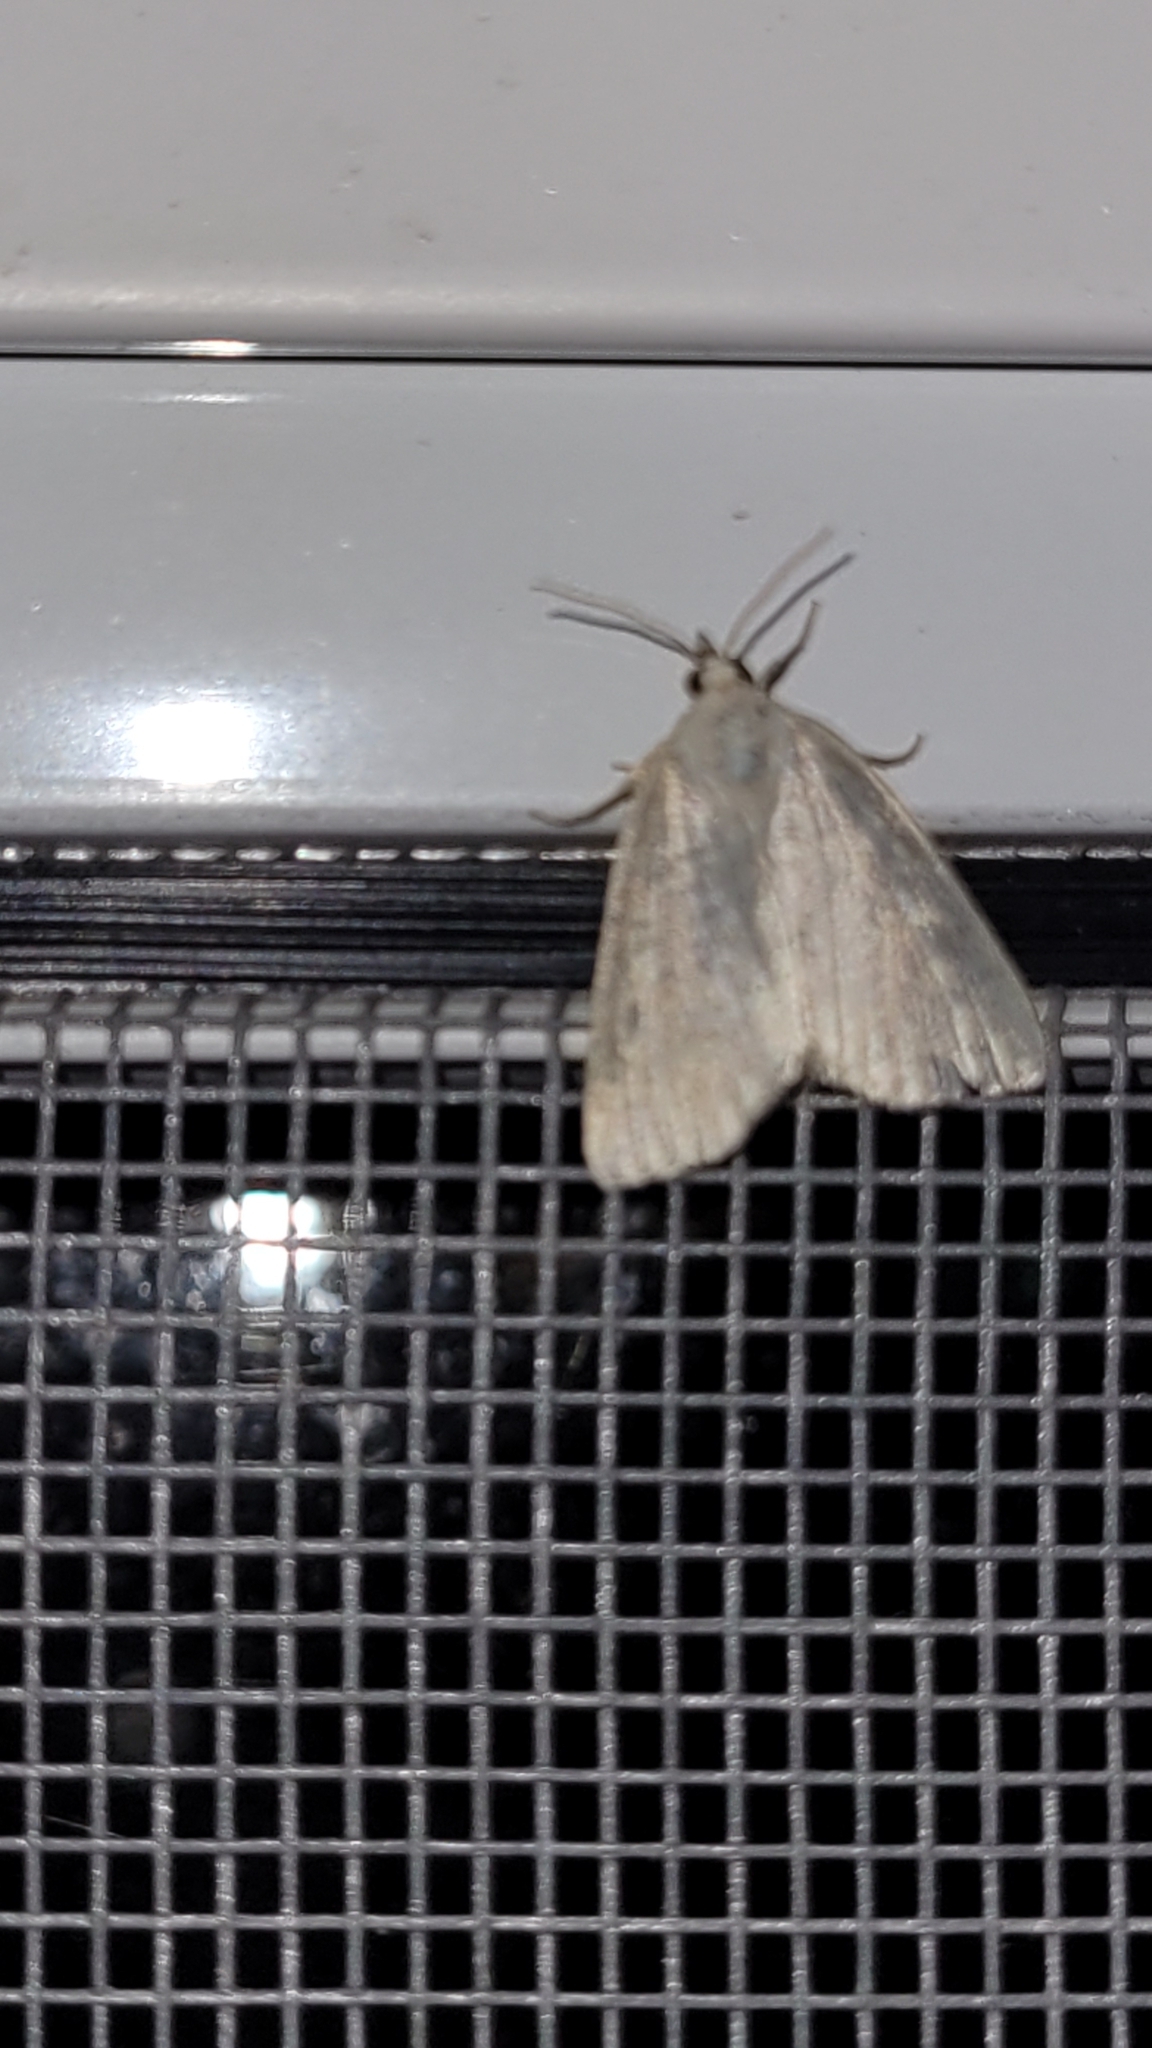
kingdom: Animalia
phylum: Arthropoda
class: Insecta
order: Lepidoptera
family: Noctuidae
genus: Protodeltote
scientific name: Protodeltote albidula
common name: Pale glyph
